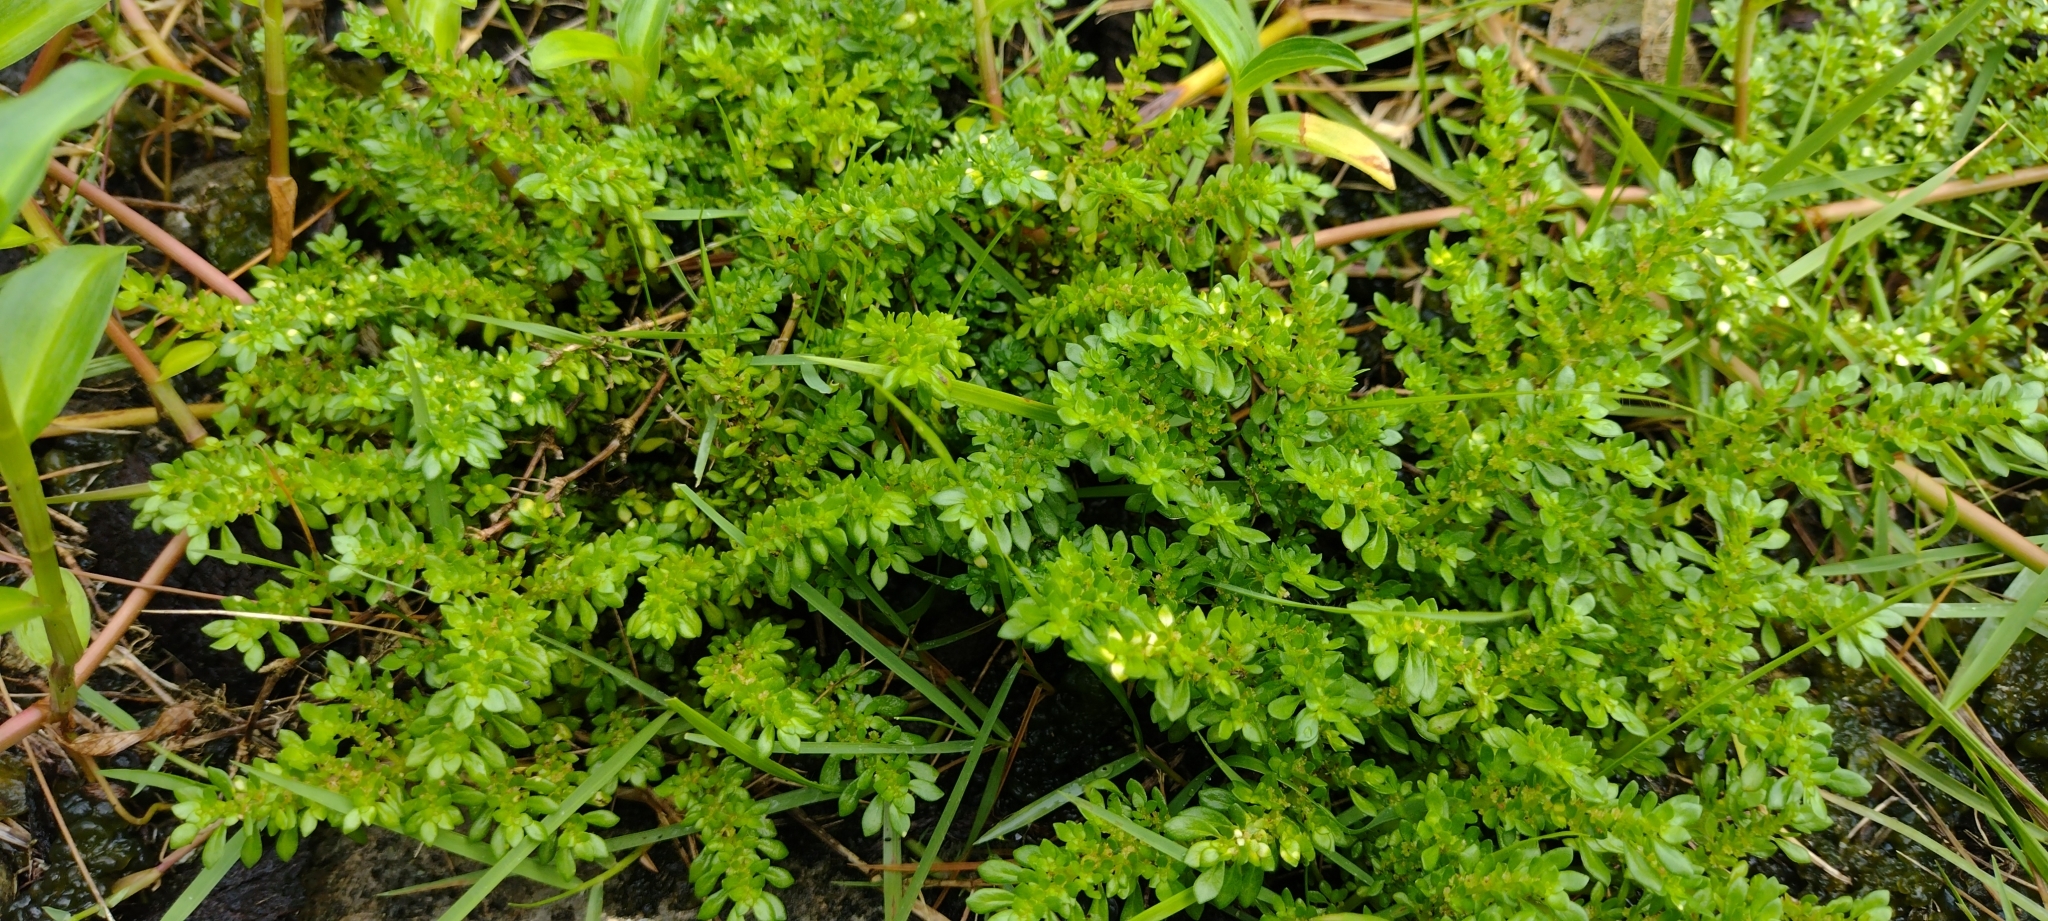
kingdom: Plantae
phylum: Tracheophyta
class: Magnoliopsida
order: Rosales
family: Urticaceae
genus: Pilea
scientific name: Pilea microphylla
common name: Artillery-plant
